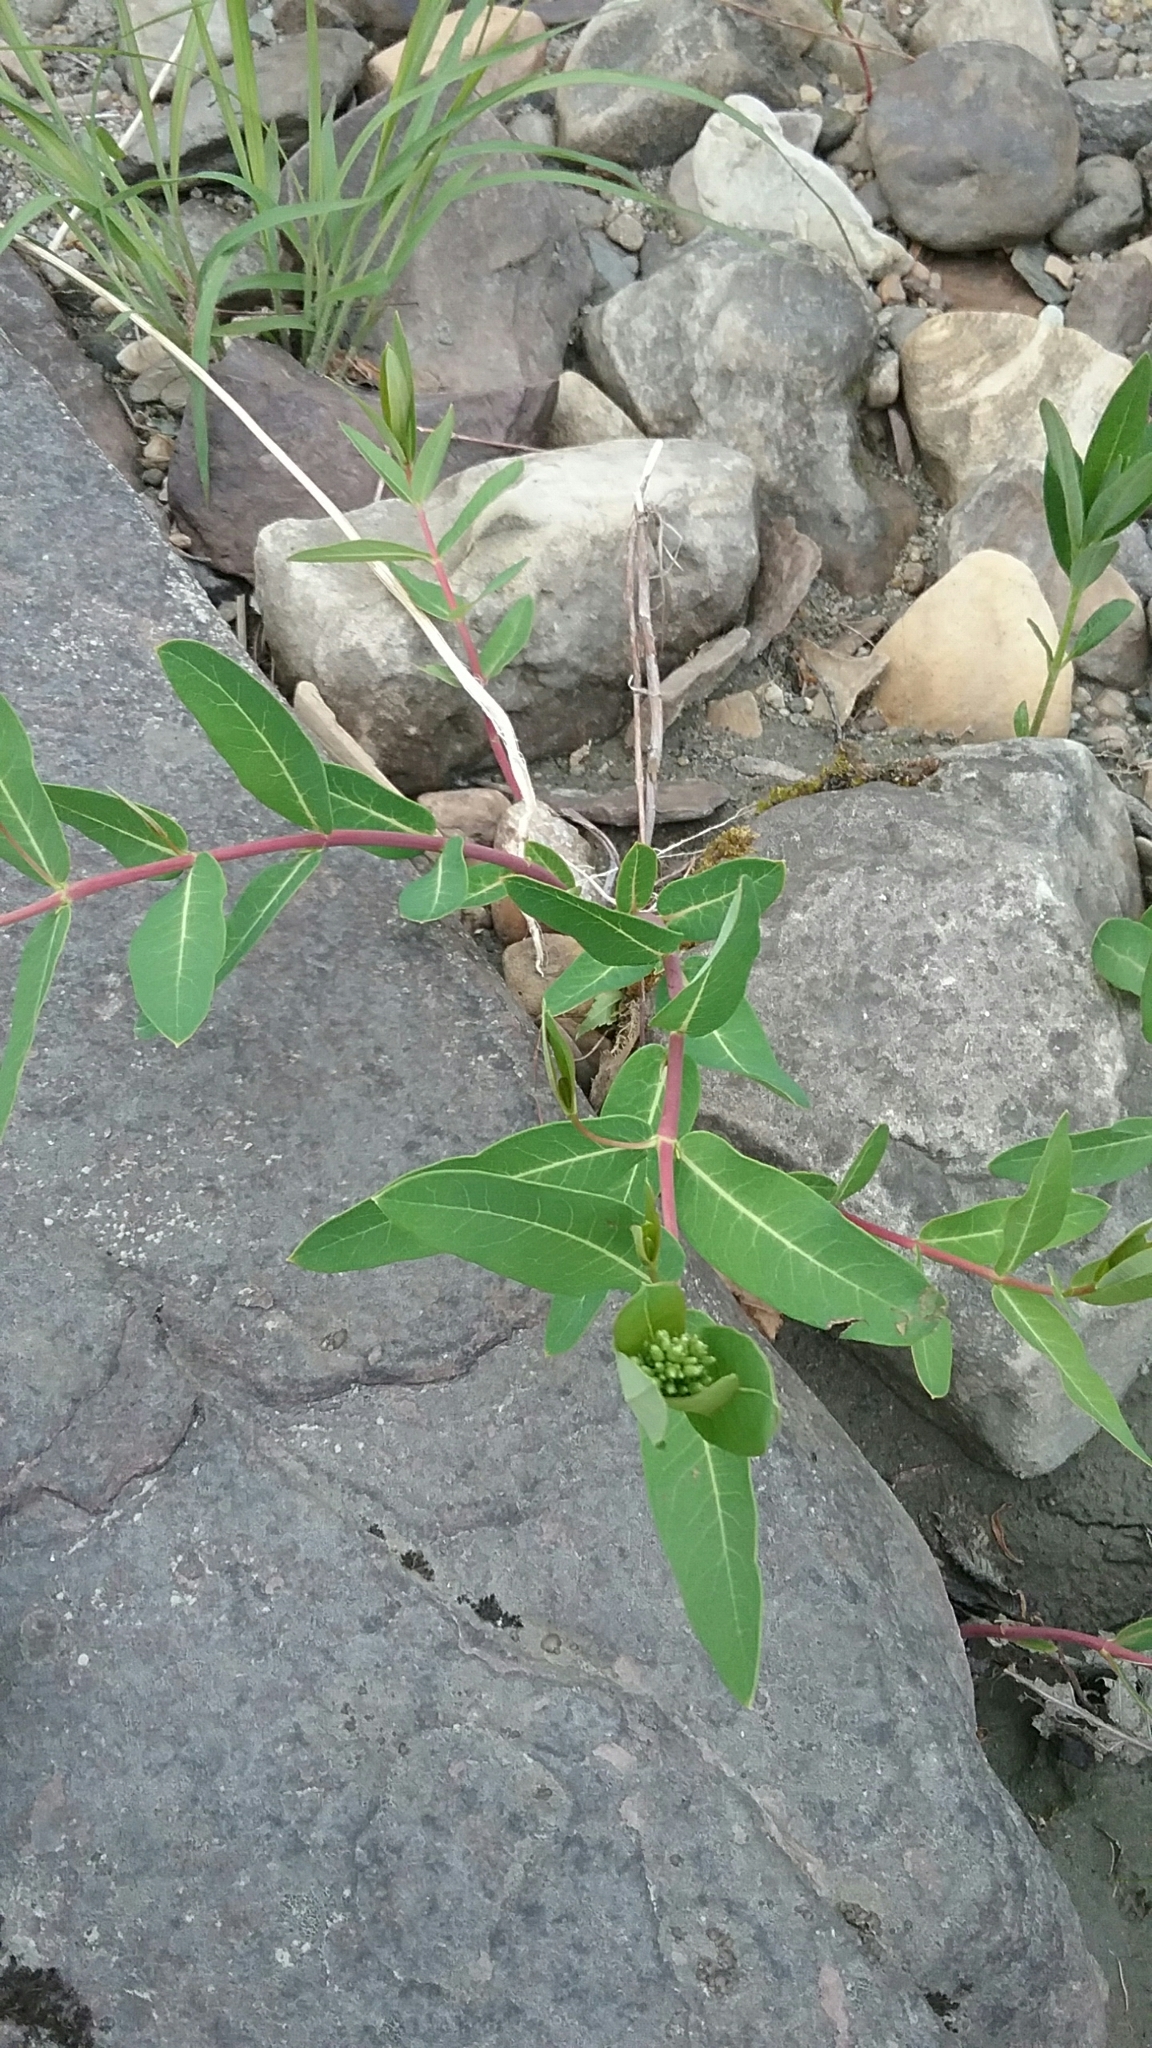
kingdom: Plantae
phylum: Tracheophyta
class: Magnoliopsida
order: Gentianales
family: Apocynaceae
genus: Apocynum
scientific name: Apocynum cannabinum
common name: Hemp dogbane
